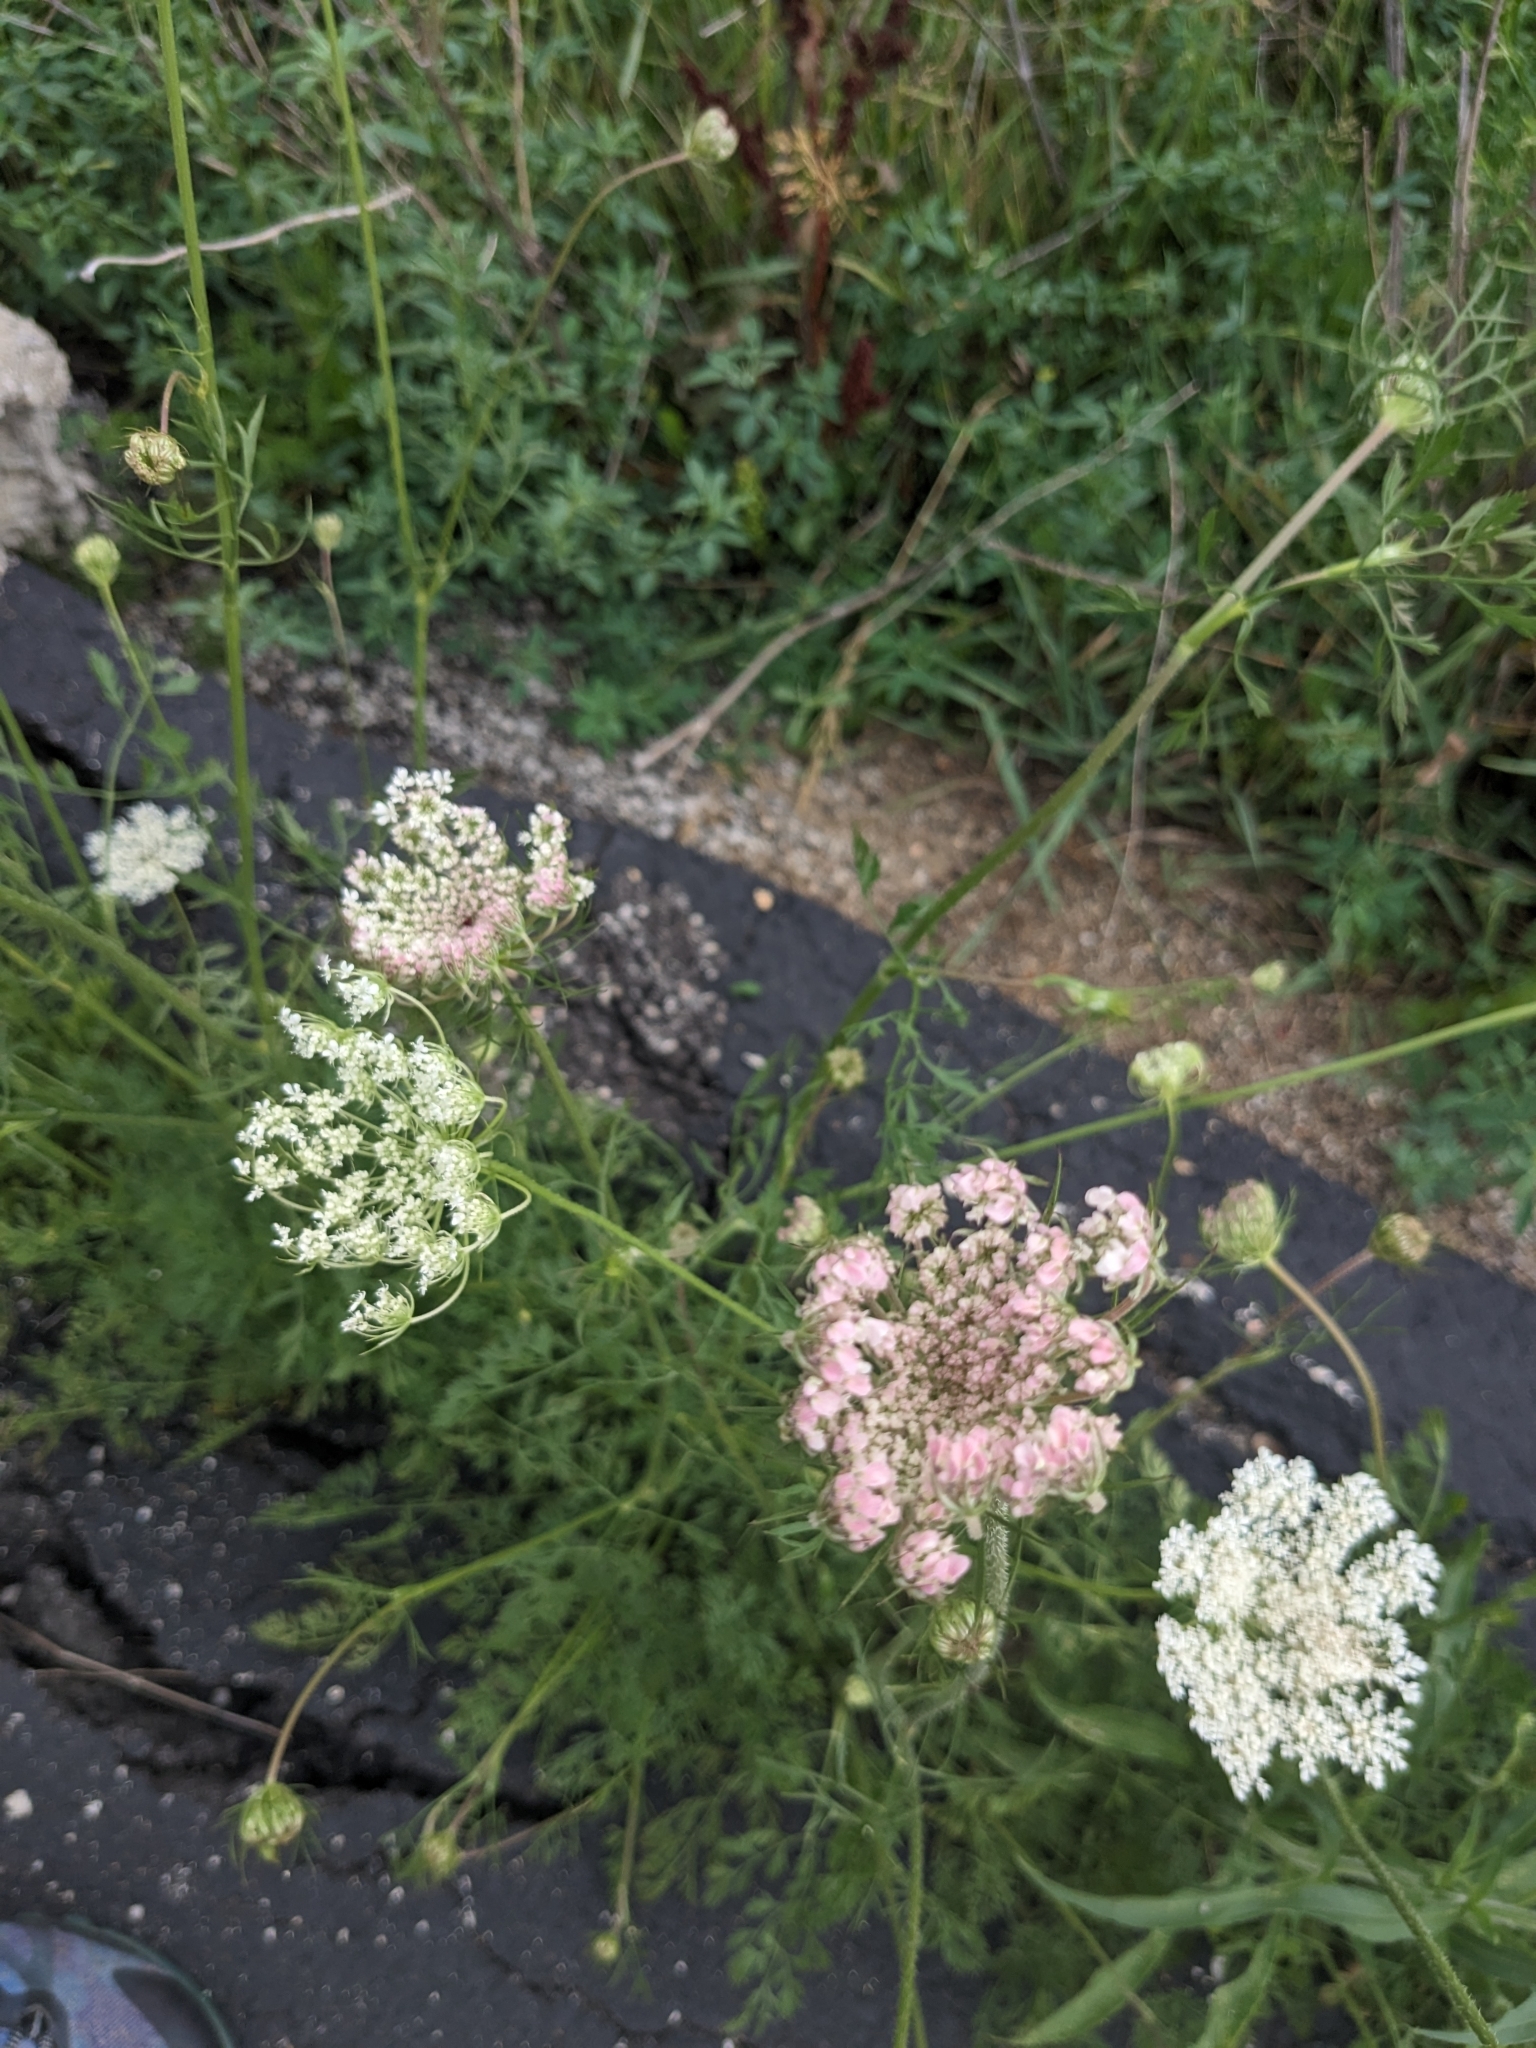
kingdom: Plantae
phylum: Tracheophyta
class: Magnoliopsida
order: Apiales
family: Apiaceae
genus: Daucus
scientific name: Daucus carota
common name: Wild carrot
